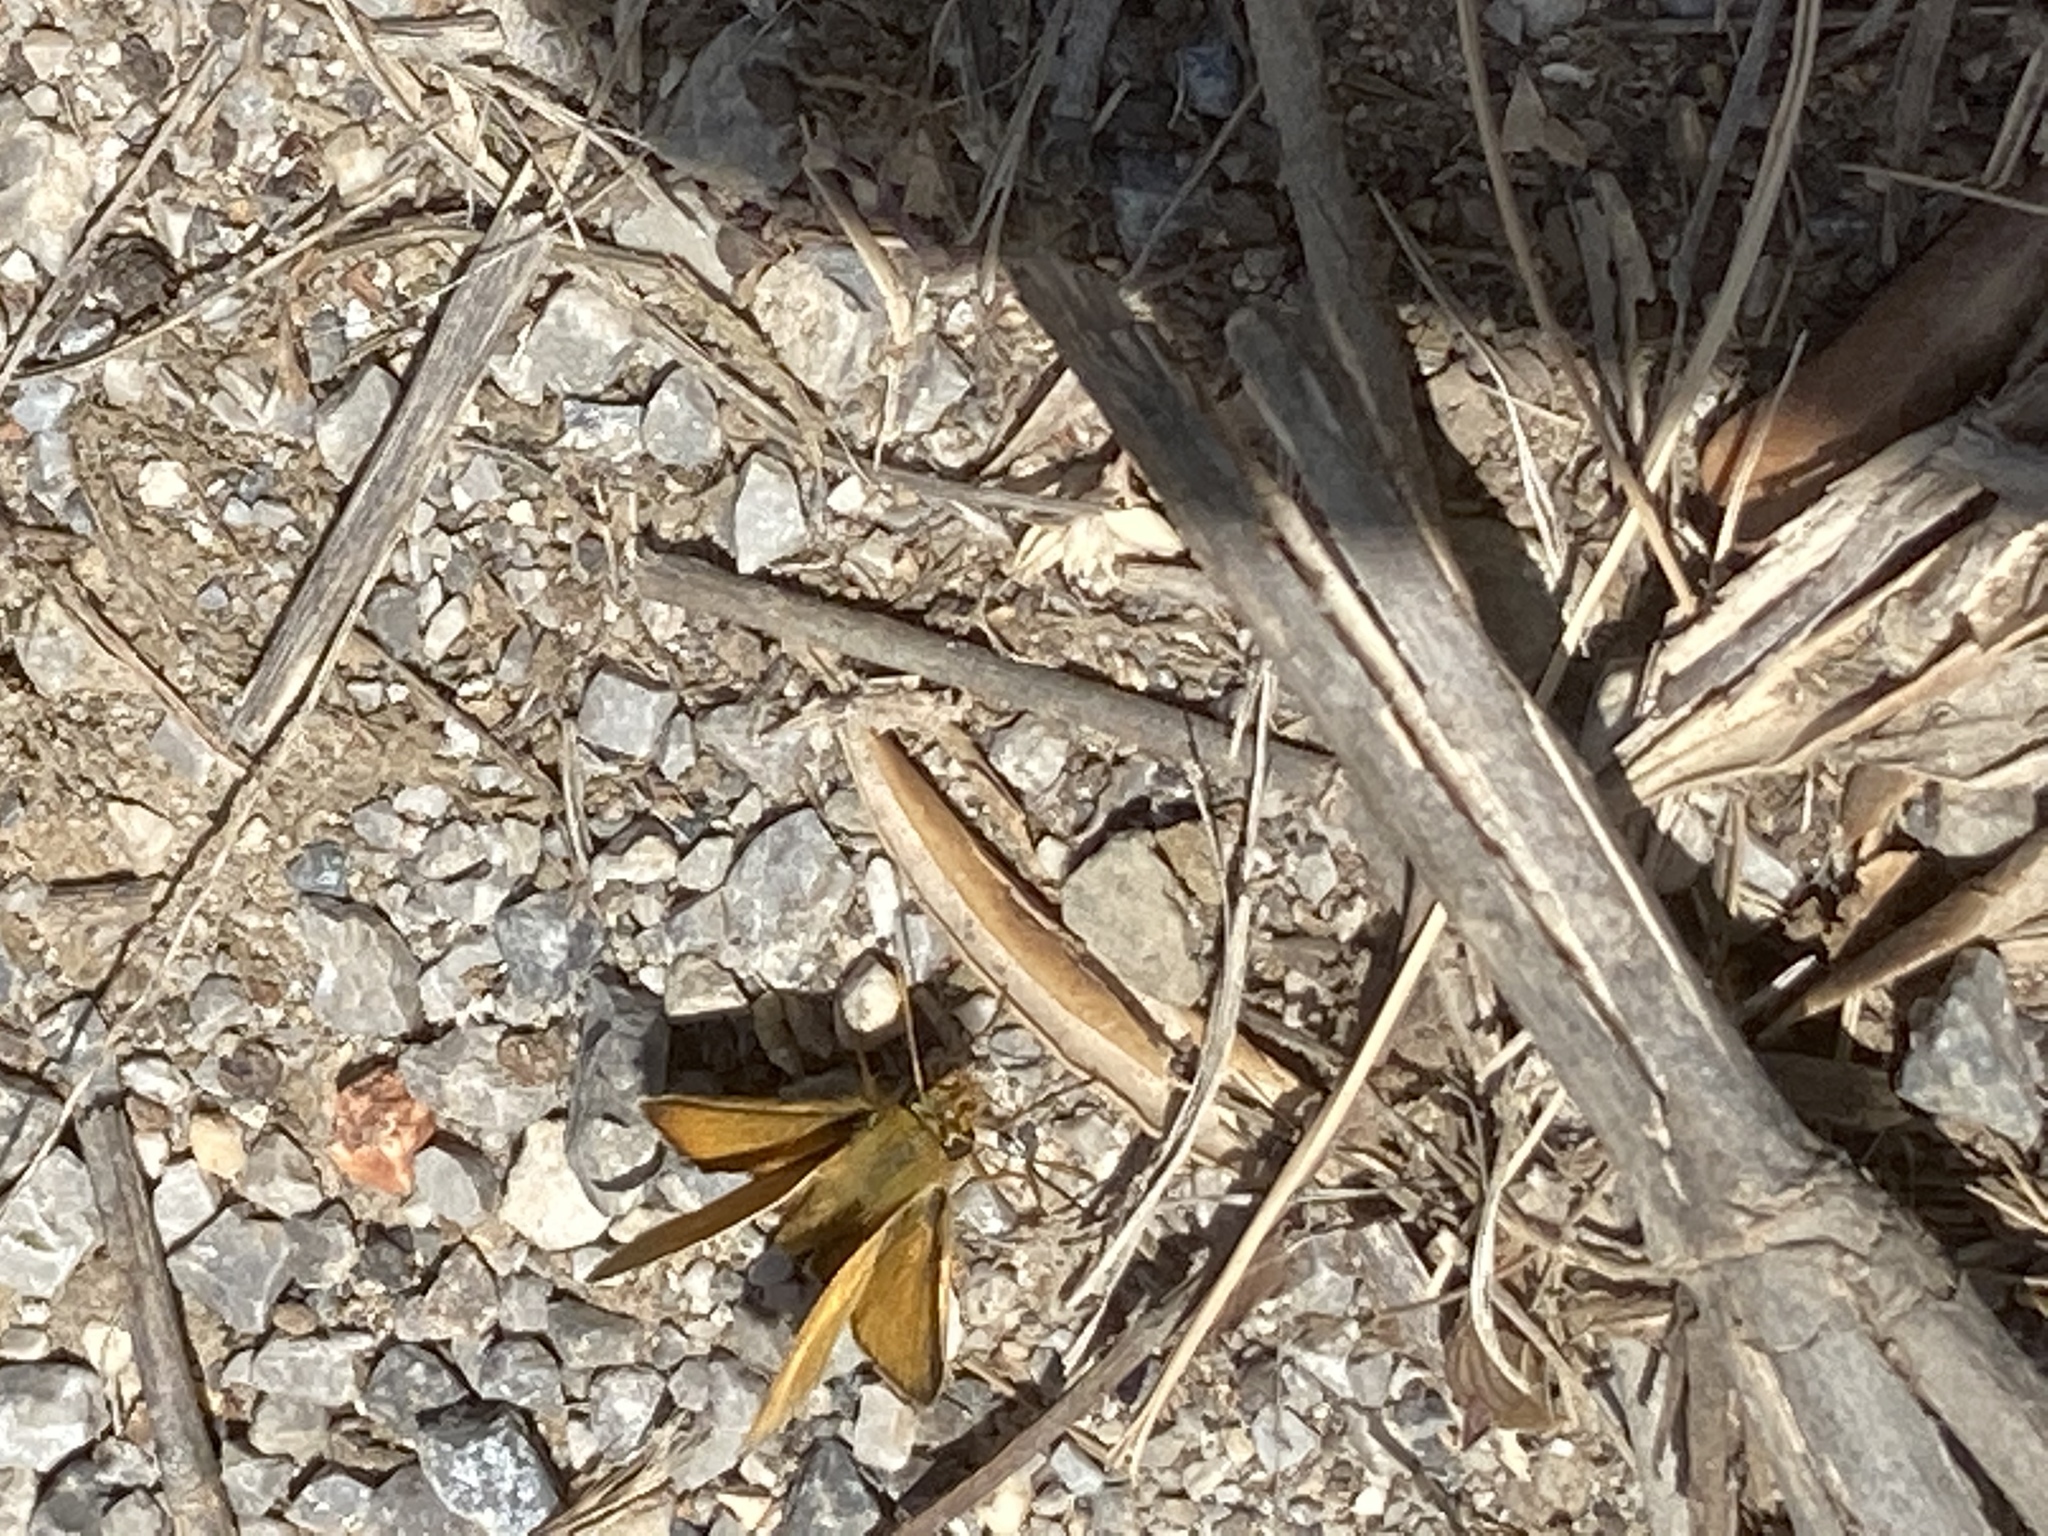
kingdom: Animalia
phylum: Arthropoda
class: Insecta
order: Lepidoptera
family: Hesperiidae
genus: Thymelicus
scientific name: Thymelicus acteon
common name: Lulworth skipper
